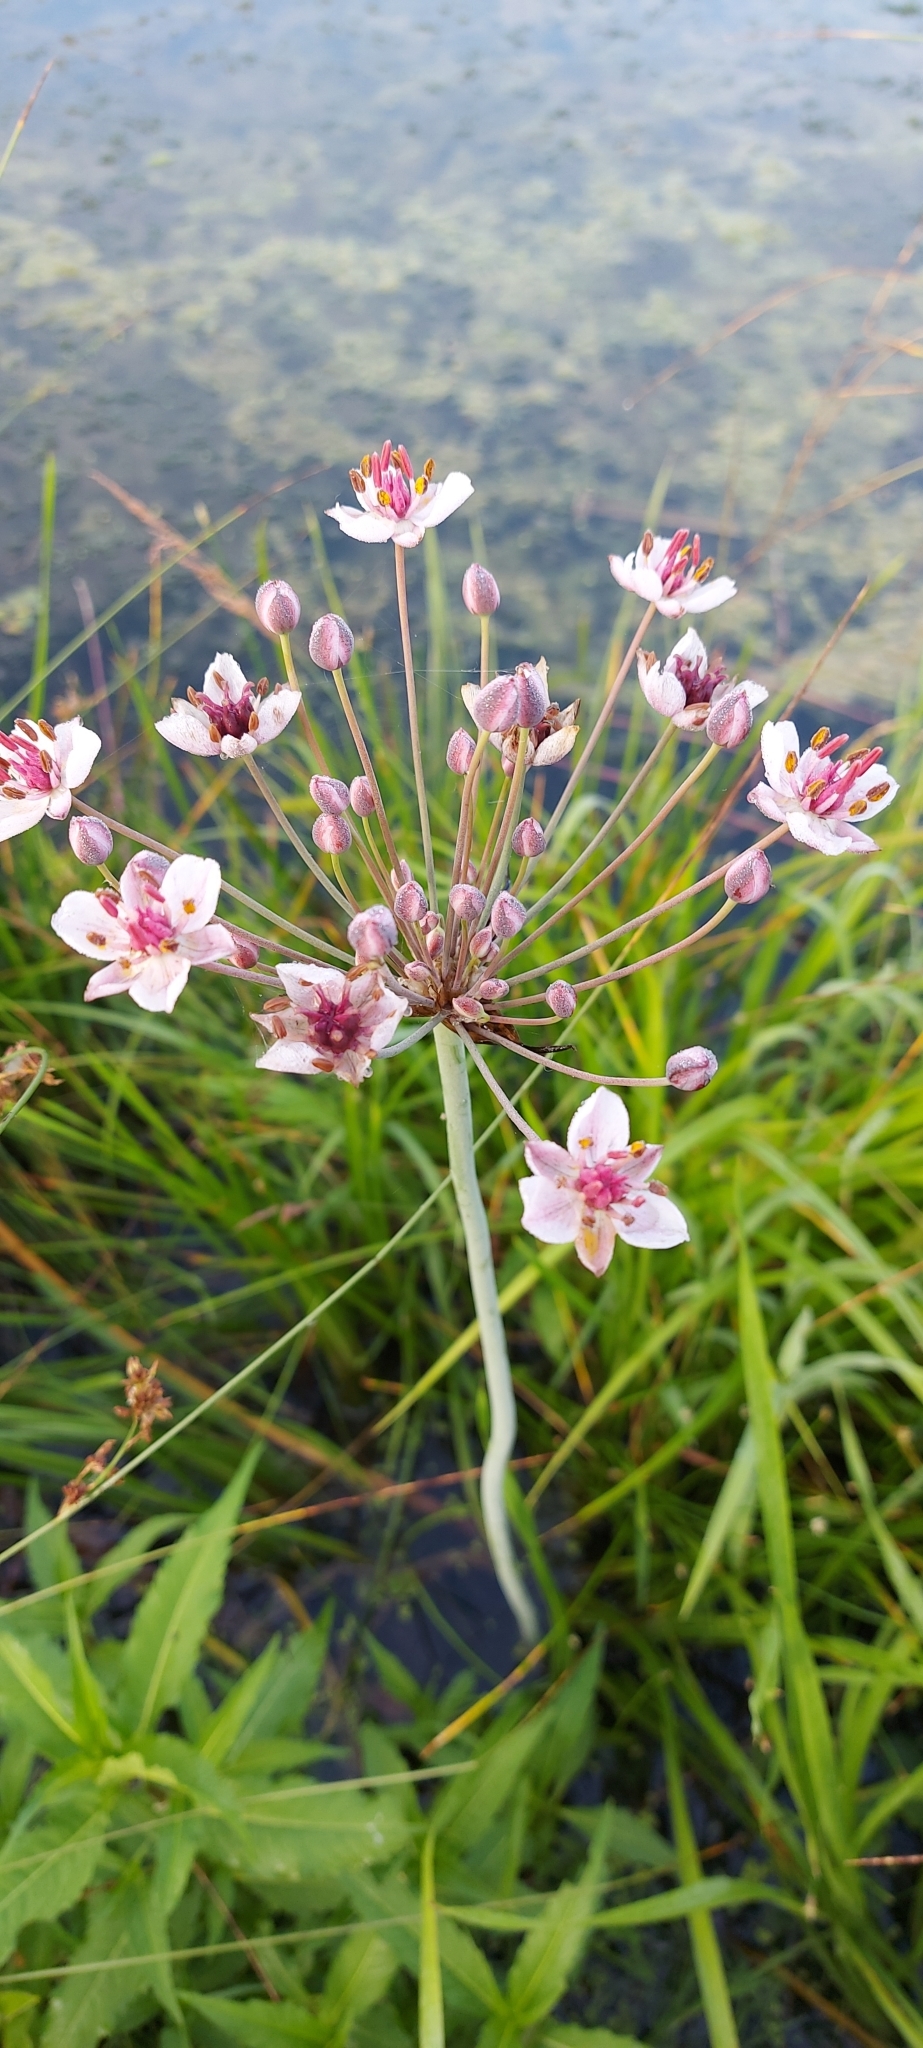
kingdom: Plantae
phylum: Tracheophyta
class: Liliopsida
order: Alismatales
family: Butomaceae
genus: Butomus
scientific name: Butomus umbellatus
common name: Flowering-rush
